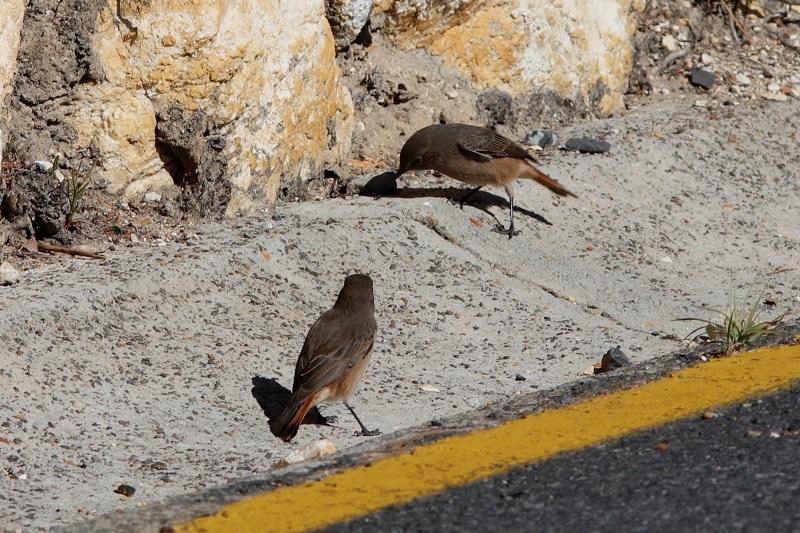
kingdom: Animalia
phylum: Chordata
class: Aves
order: Passeriformes
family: Muscicapidae
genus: Oenanthe
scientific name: Oenanthe familiaris
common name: Familiar chat
